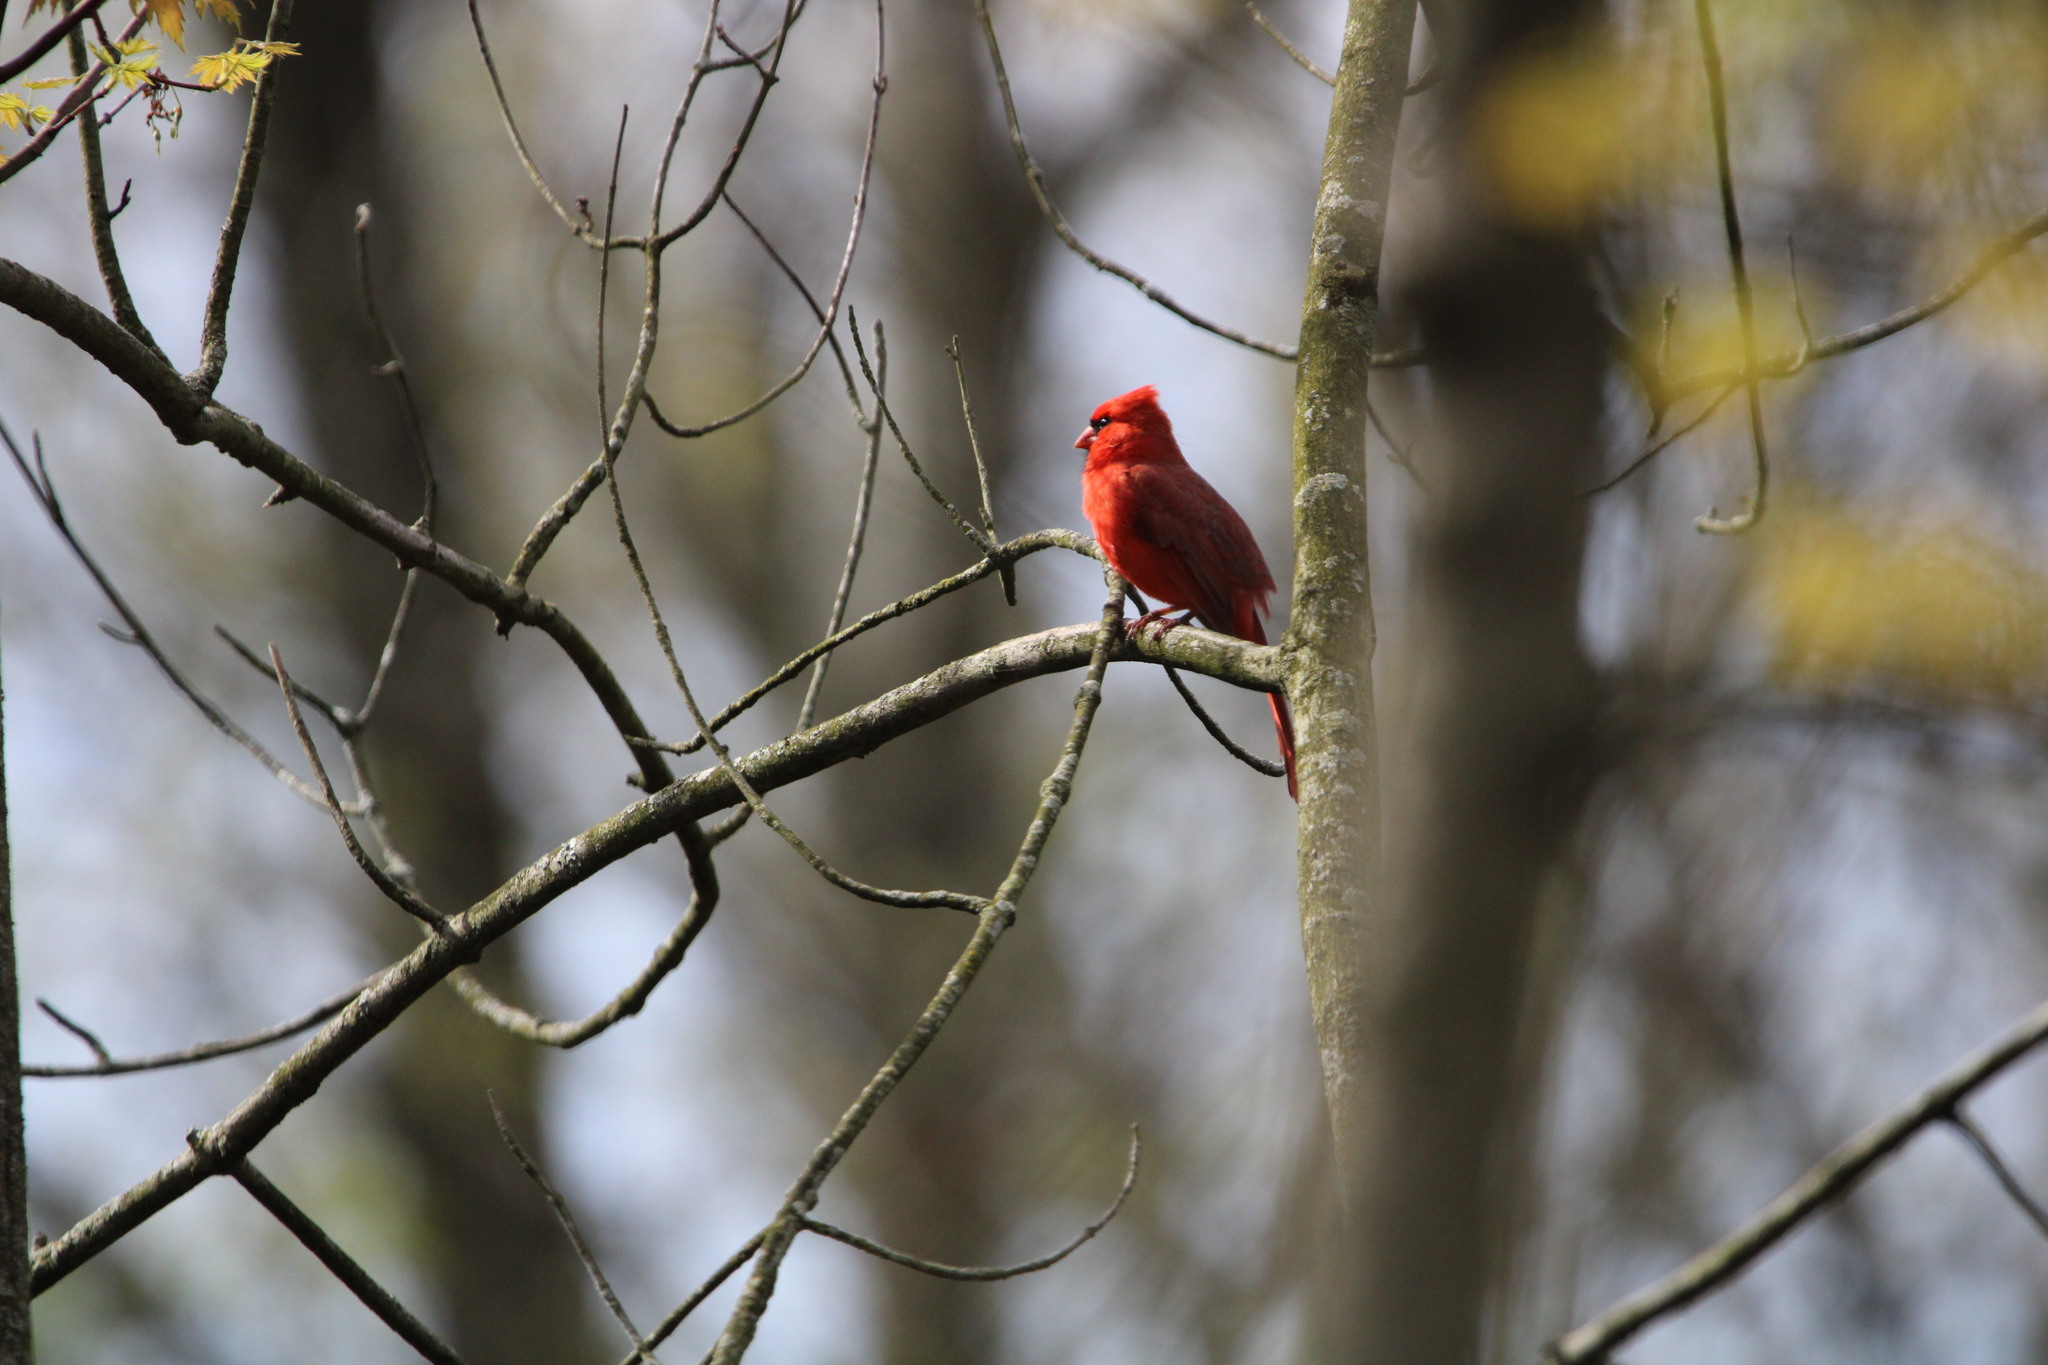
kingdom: Animalia
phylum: Chordata
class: Aves
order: Passeriformes
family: Cardinalidae
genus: Cardinalis
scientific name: Cardinalis cardinalis
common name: Northern cardinal
